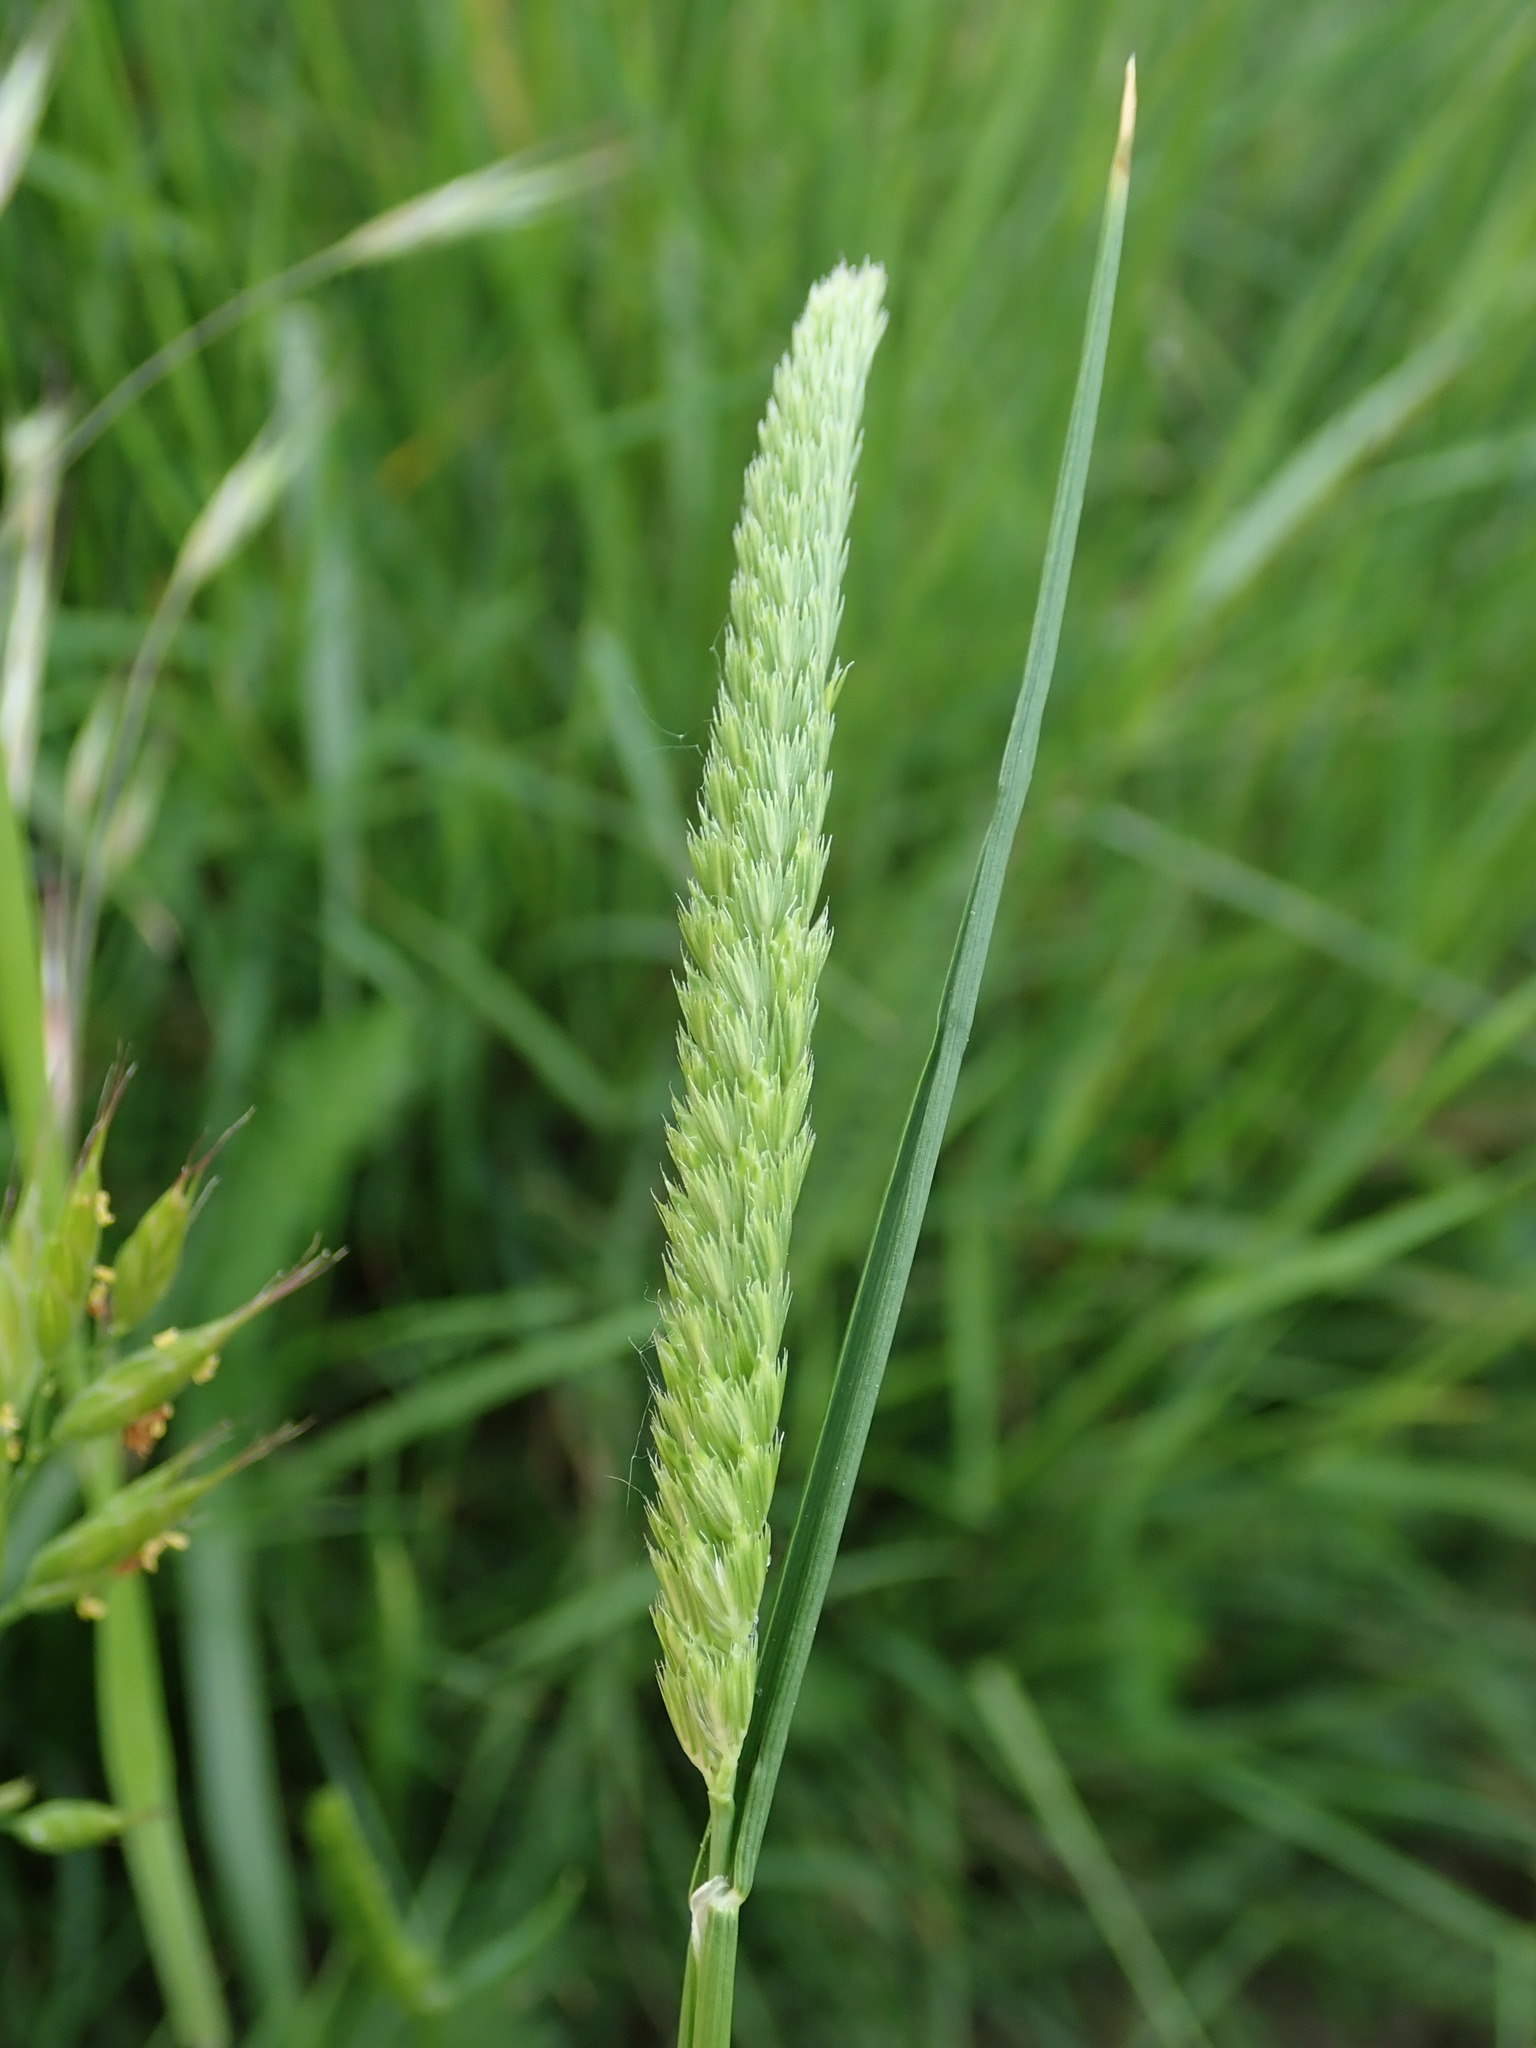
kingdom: Plantae
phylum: Tracheophyta
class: Liliopsida
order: Poales
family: Poaceae
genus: Cynosurus
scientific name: Cynosurus cristatus
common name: Crested dog's-tail
